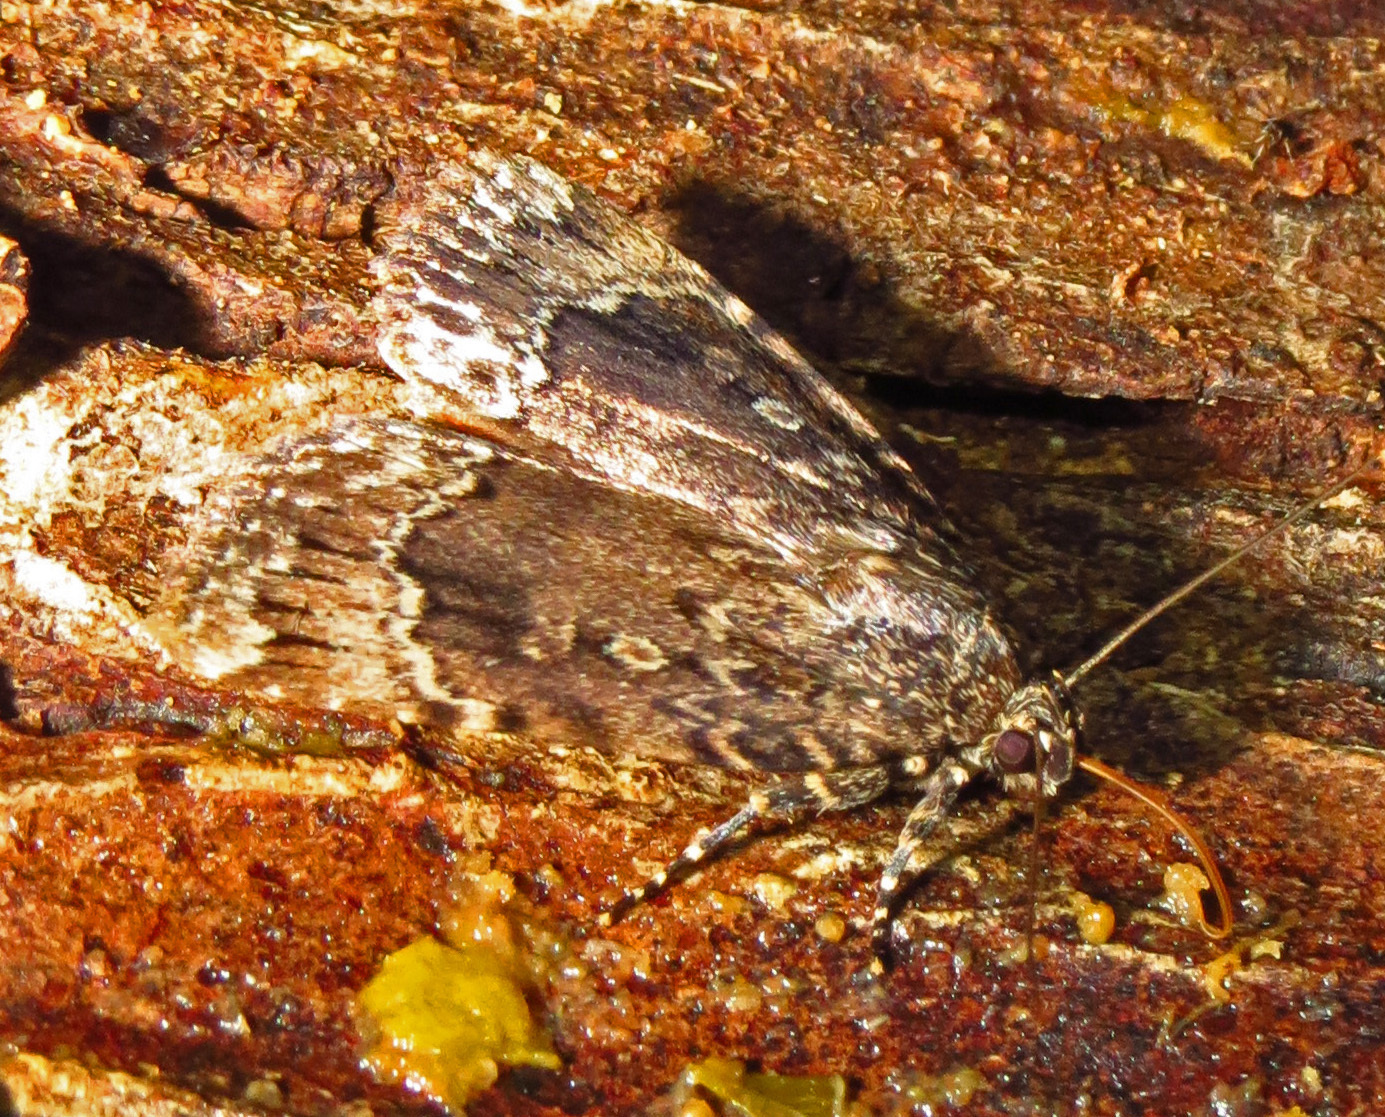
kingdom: Animalia
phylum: Arthropoda
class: Insecta
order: Lepidoptera
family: Noctuidae
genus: Amphipyra
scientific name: Amphipyra pyramidoides
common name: American copper underwing
